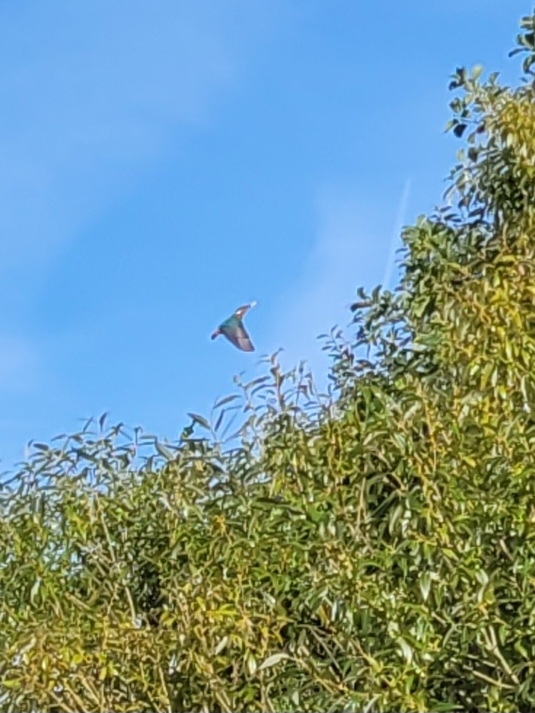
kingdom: Animalia
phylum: Chordata
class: Aves
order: Coraciiformes
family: Alcedinidae
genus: Alcedo
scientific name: Alcedo atthis
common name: Common kingfisher
